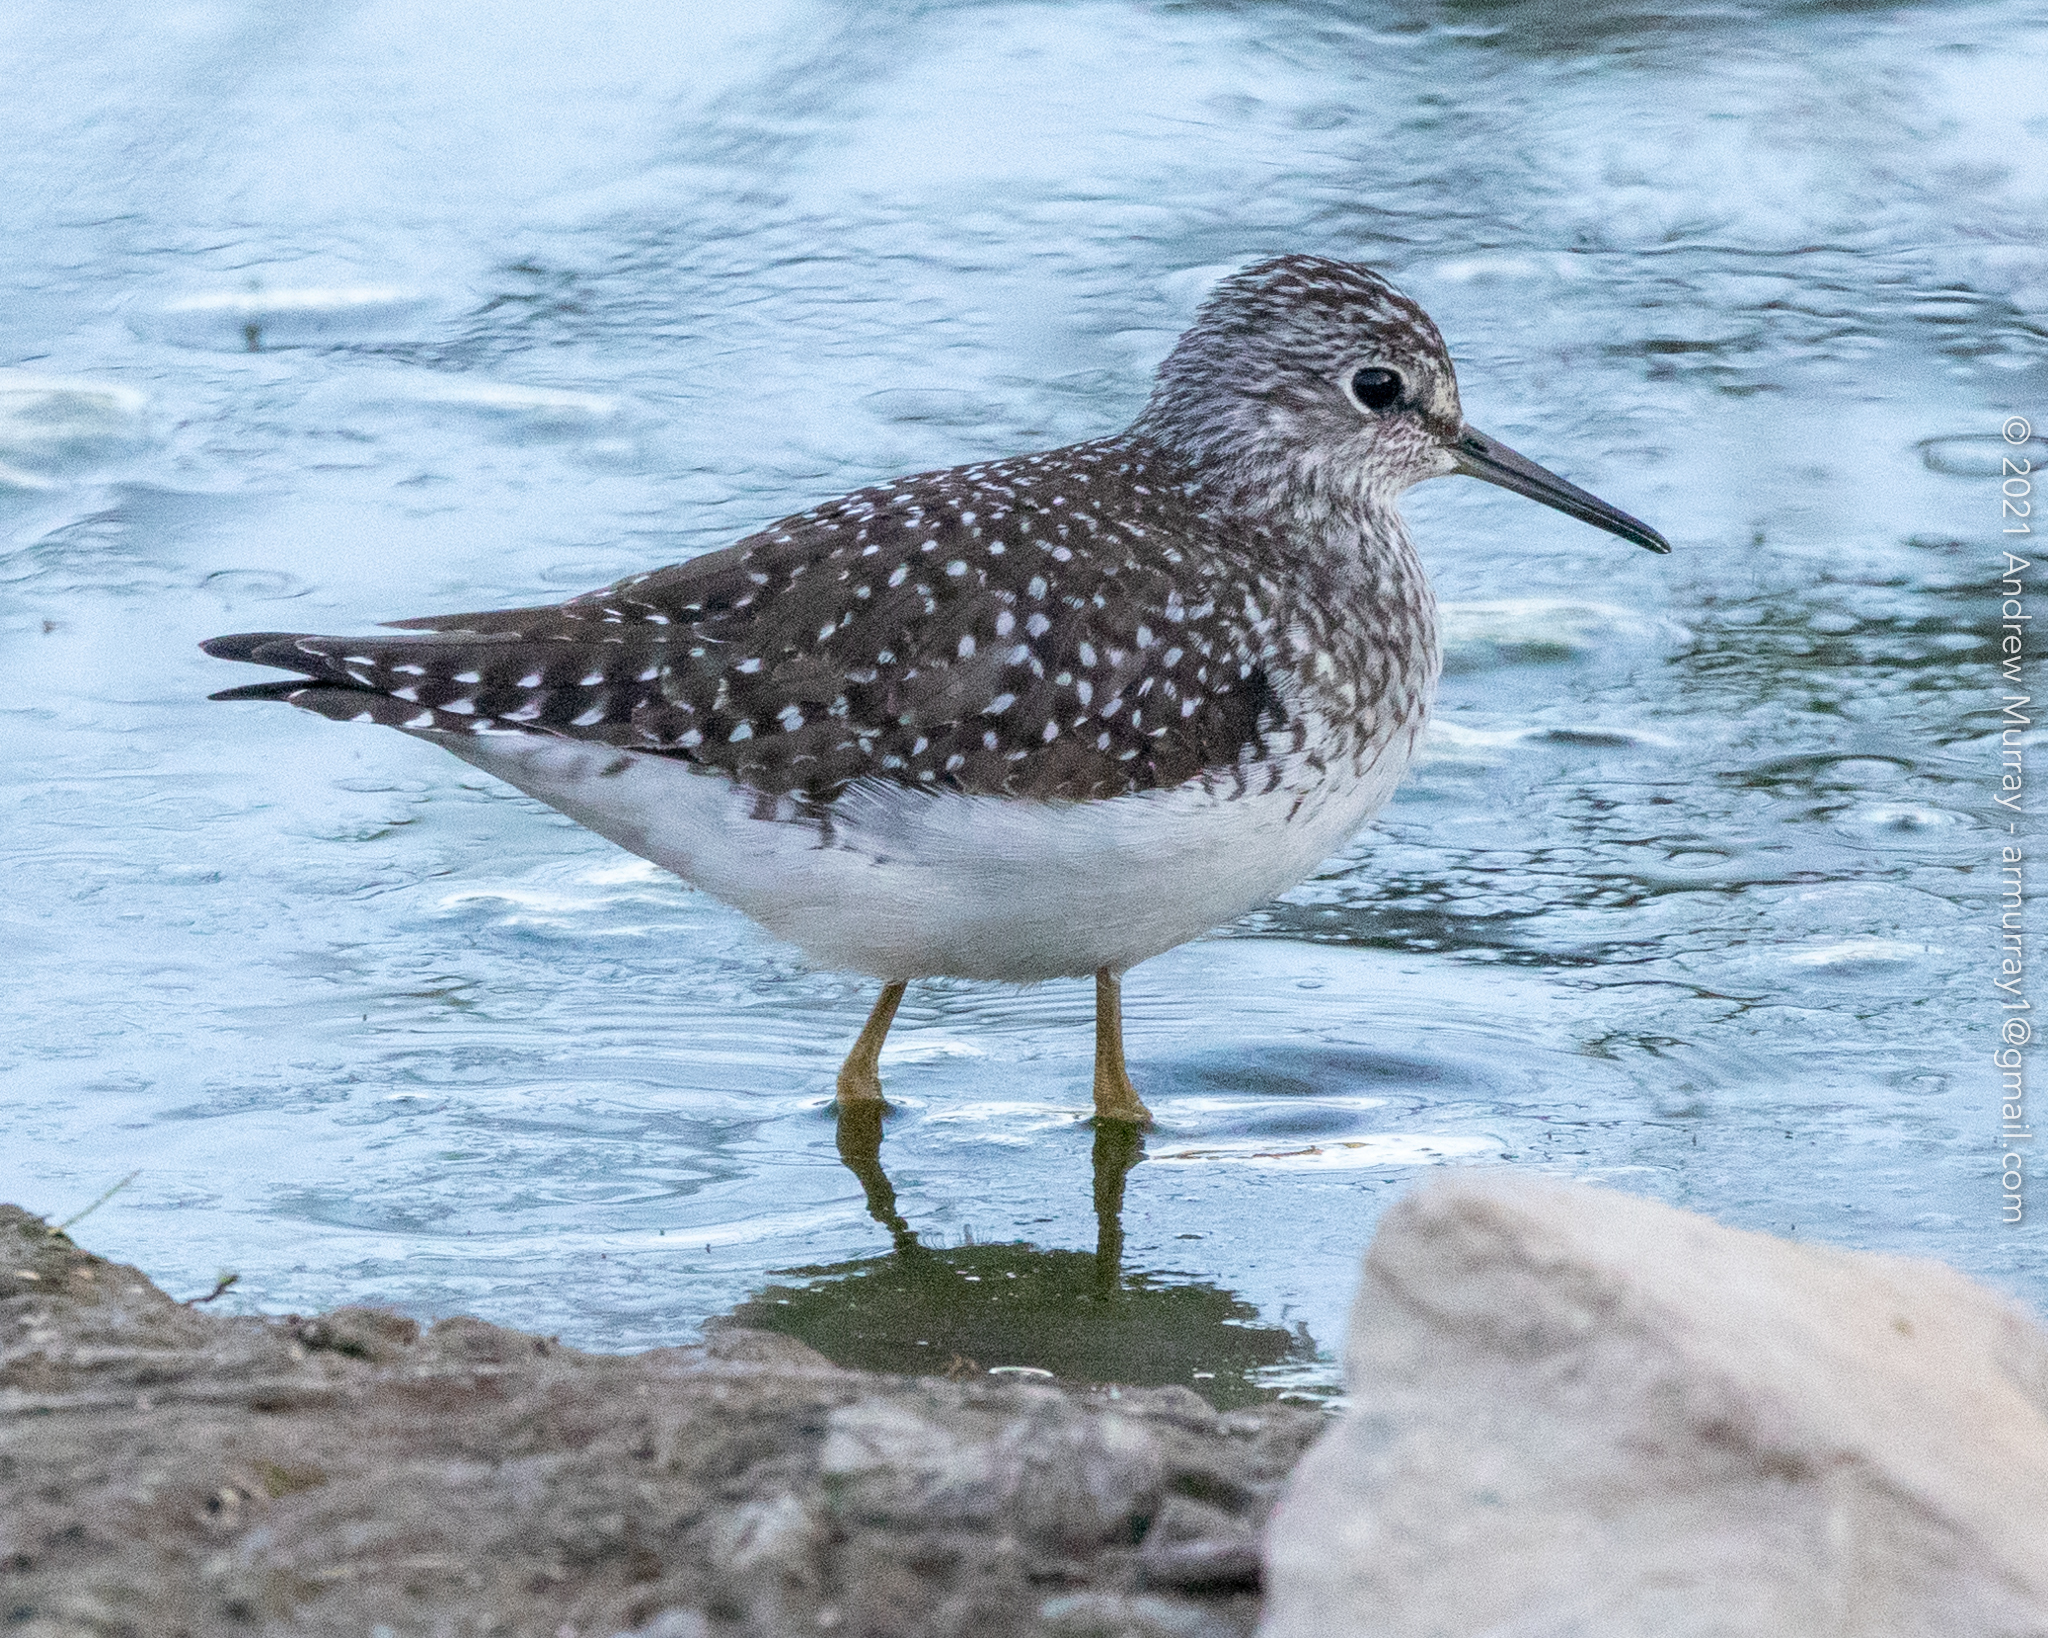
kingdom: Animalia
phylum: Chordata
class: Aves
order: Charadriiformes
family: Scolopacidae
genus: Tringa
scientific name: Tringa solitaria
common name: Solitary sandpiper
